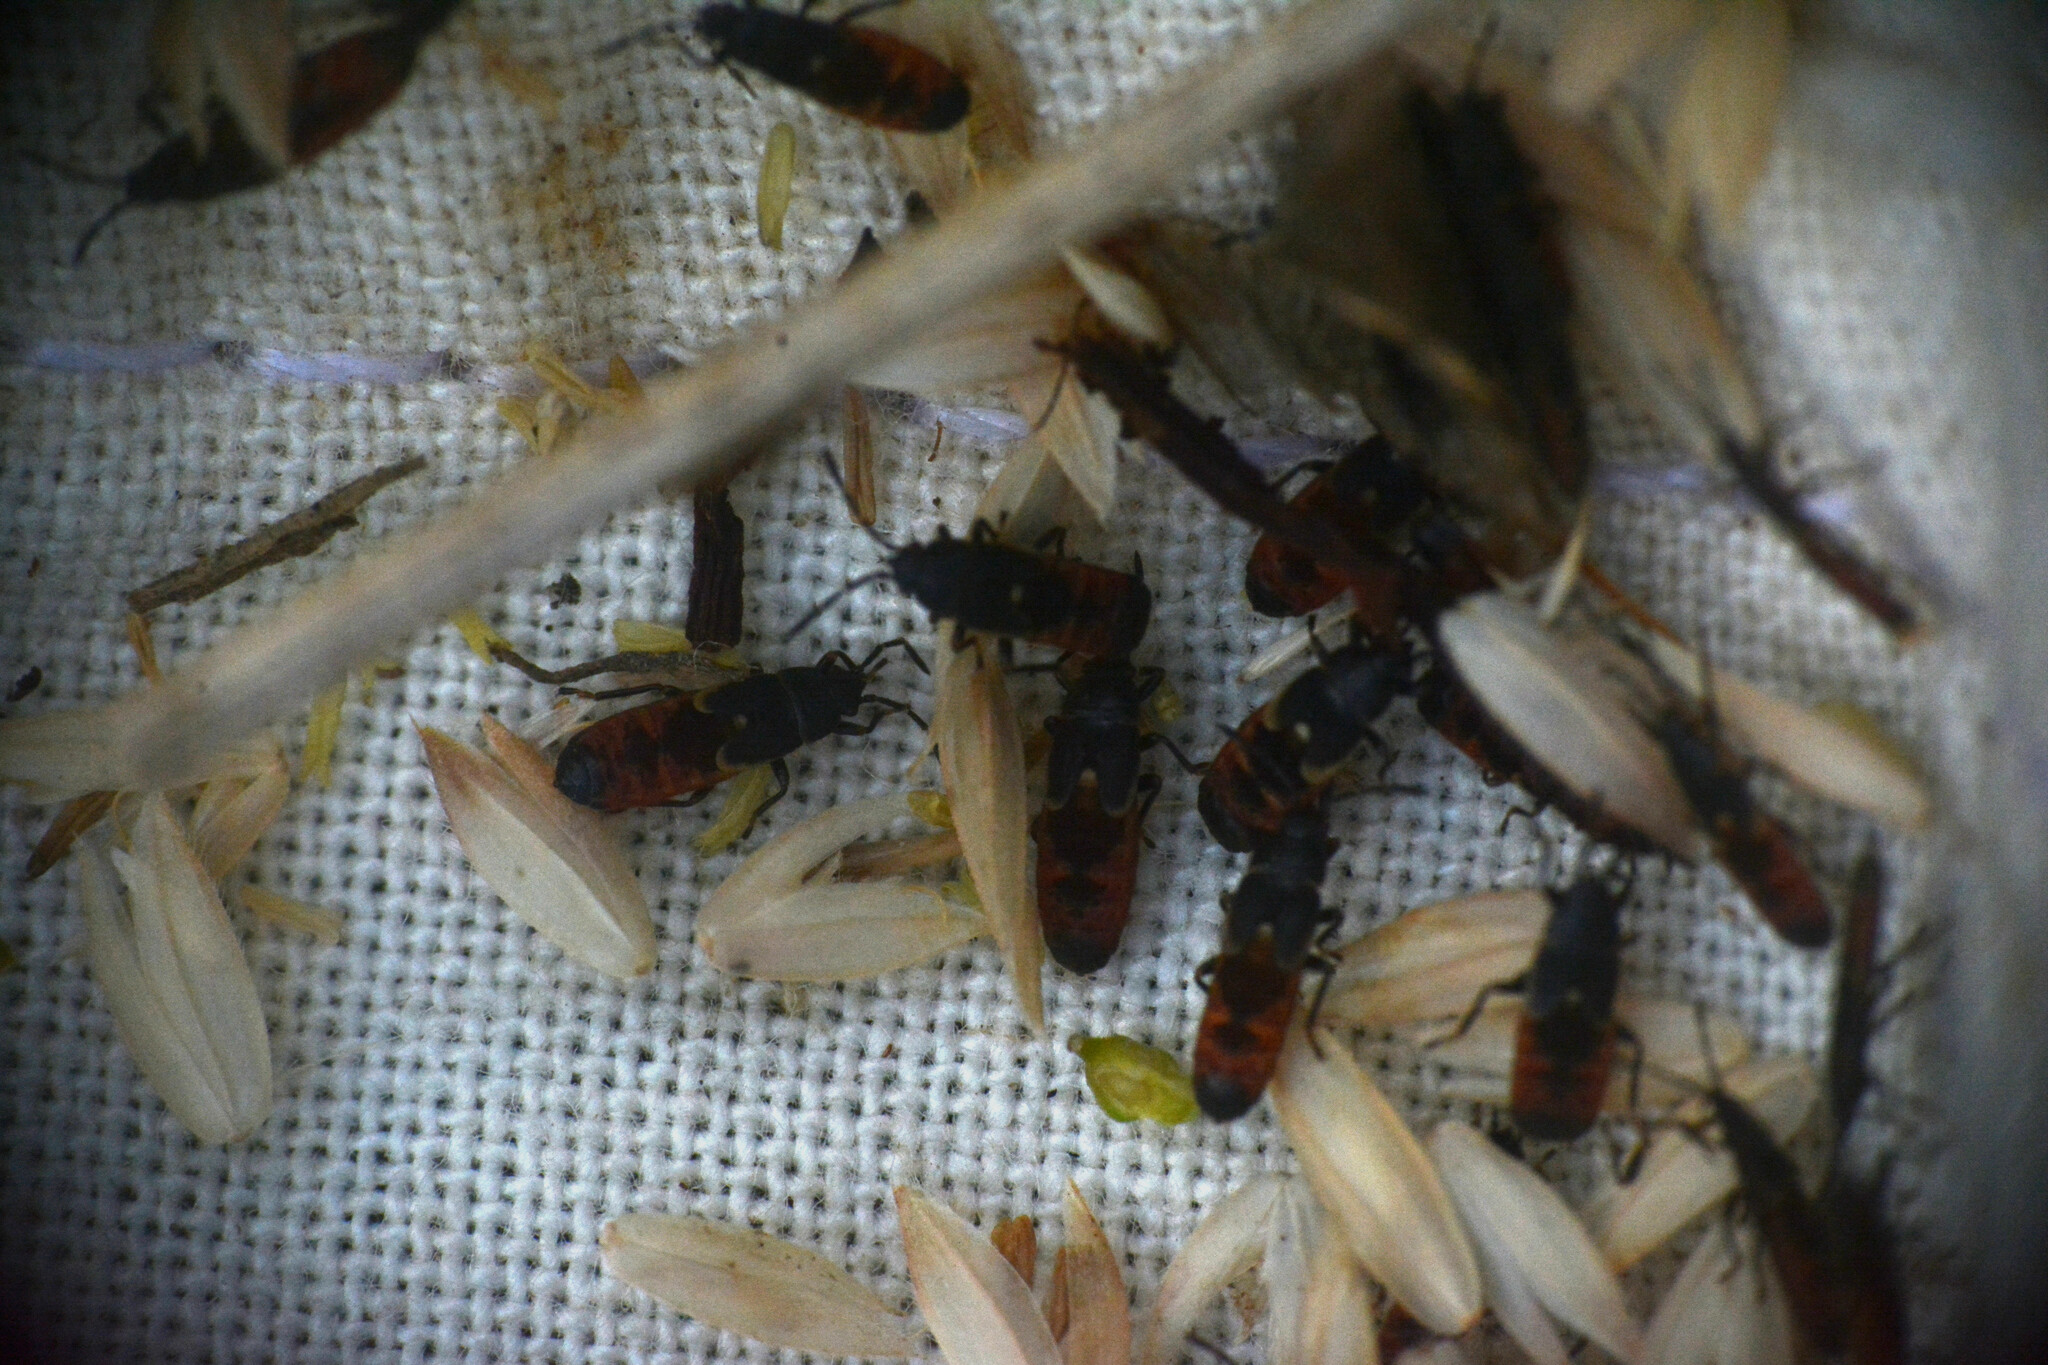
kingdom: Animalia
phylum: Arthropoda
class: Insecta
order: Hemiptera
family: Blissidae
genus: Ischnodemus
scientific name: Ischnodemus sabuleti
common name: European cinchbug
